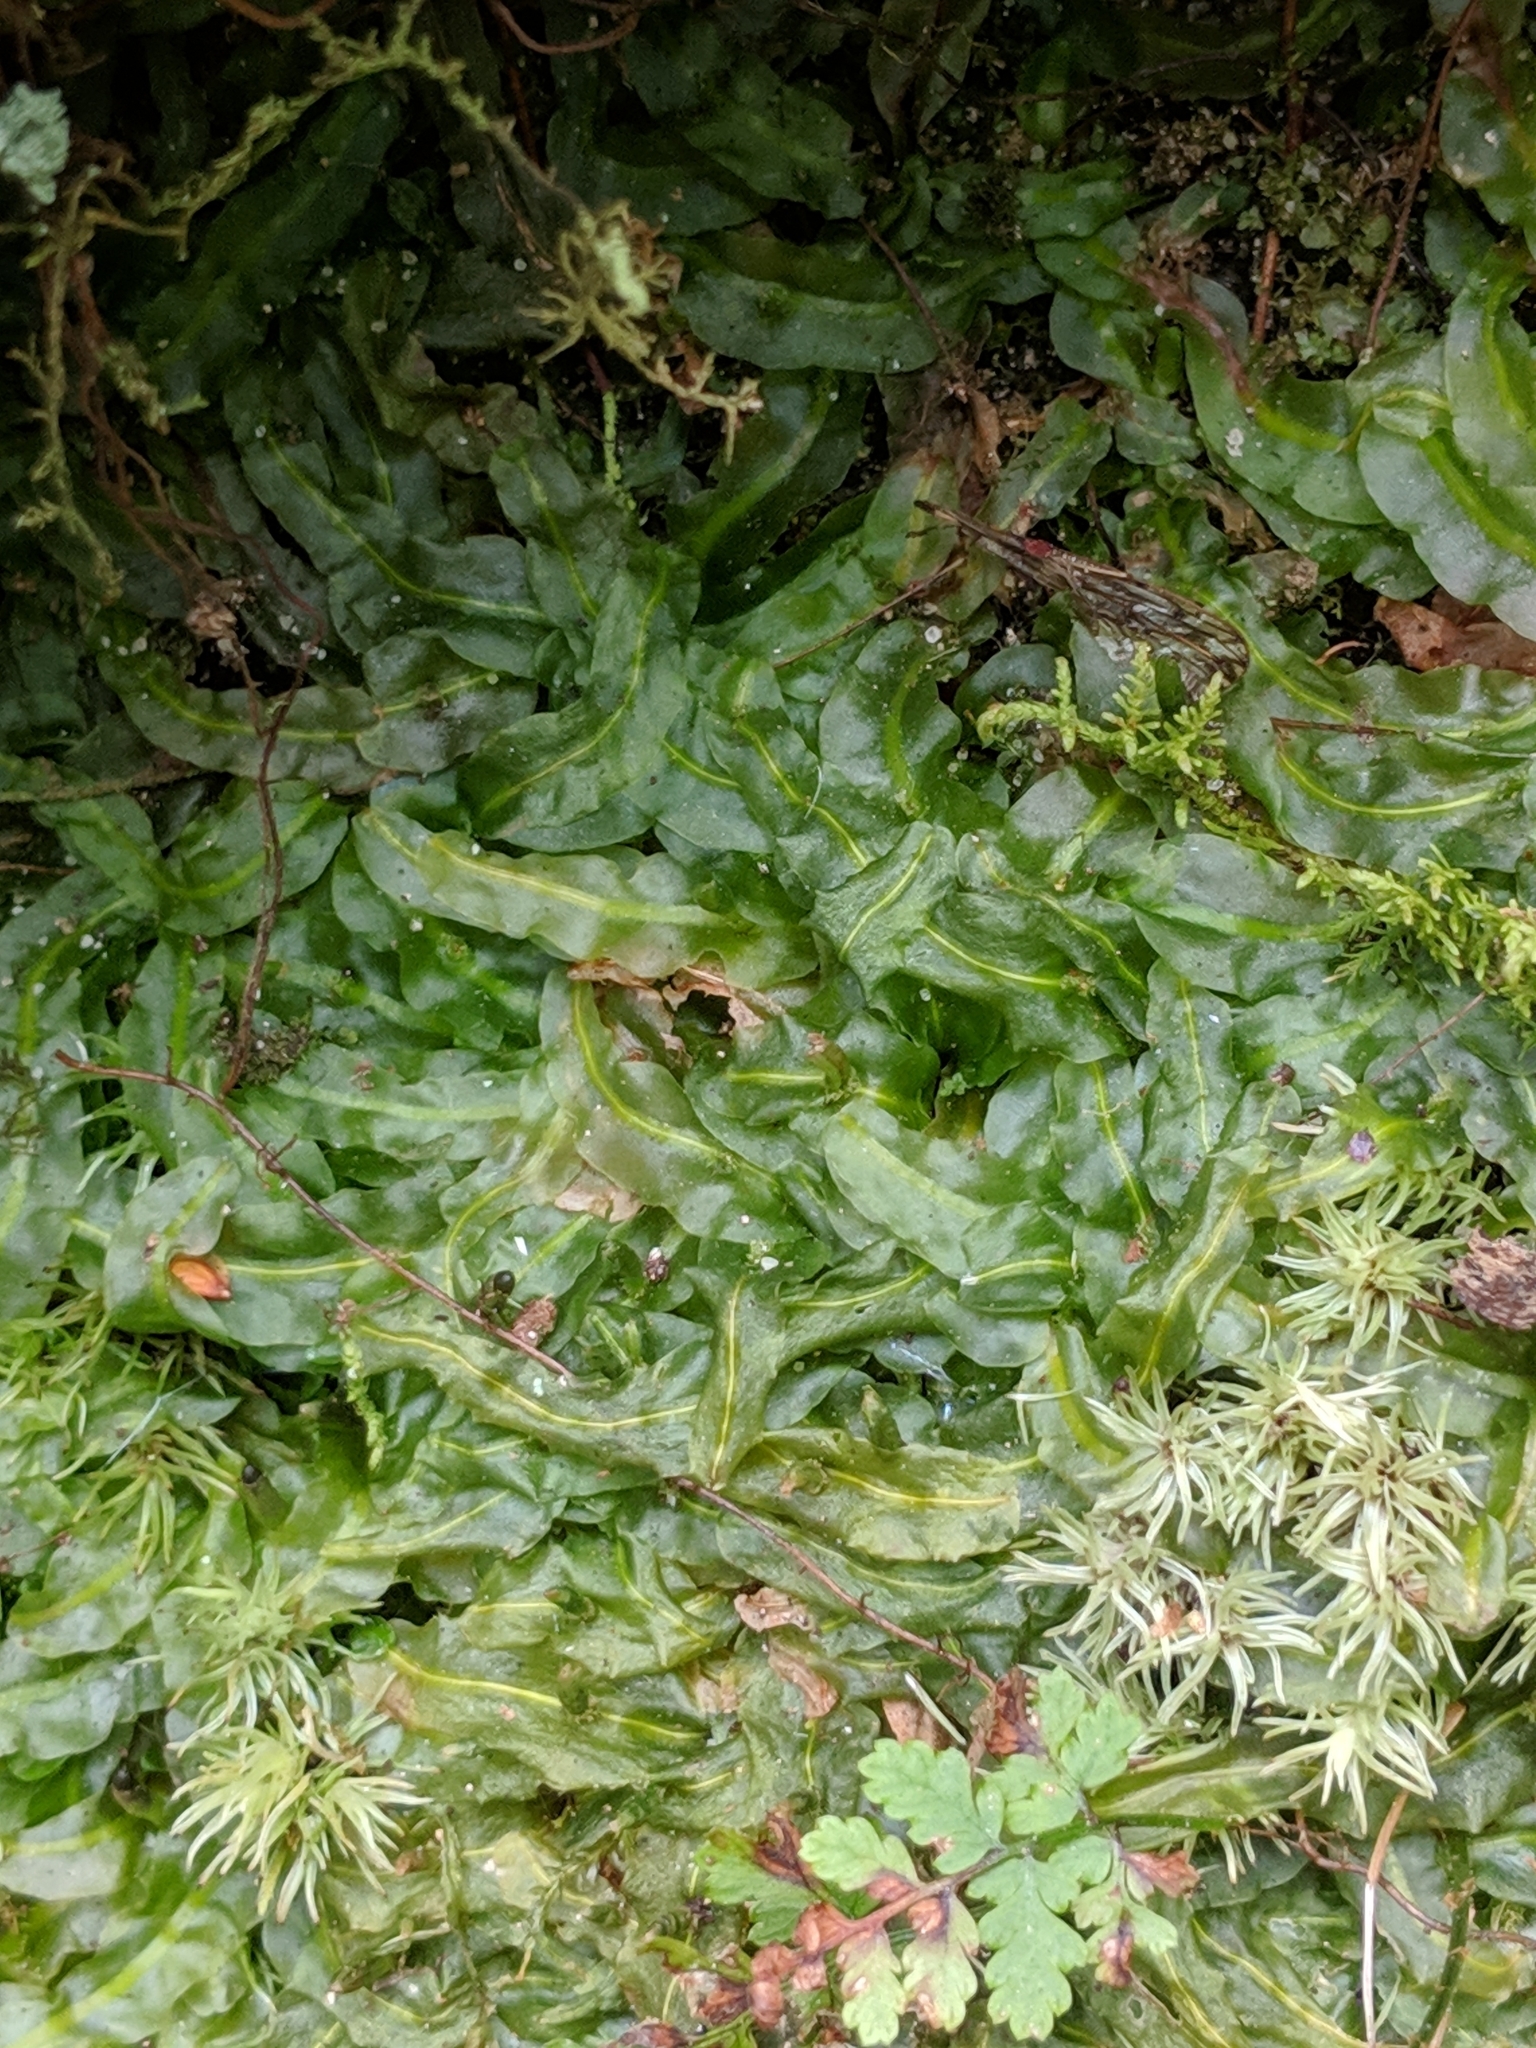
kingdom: Plantae
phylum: Marchantiophyta
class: Jungermanniopsida
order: Pallaviciniales
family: Pallaviciniaceae
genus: Pallavicinia
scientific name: Pallavicinia lyellii
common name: Veilwort
